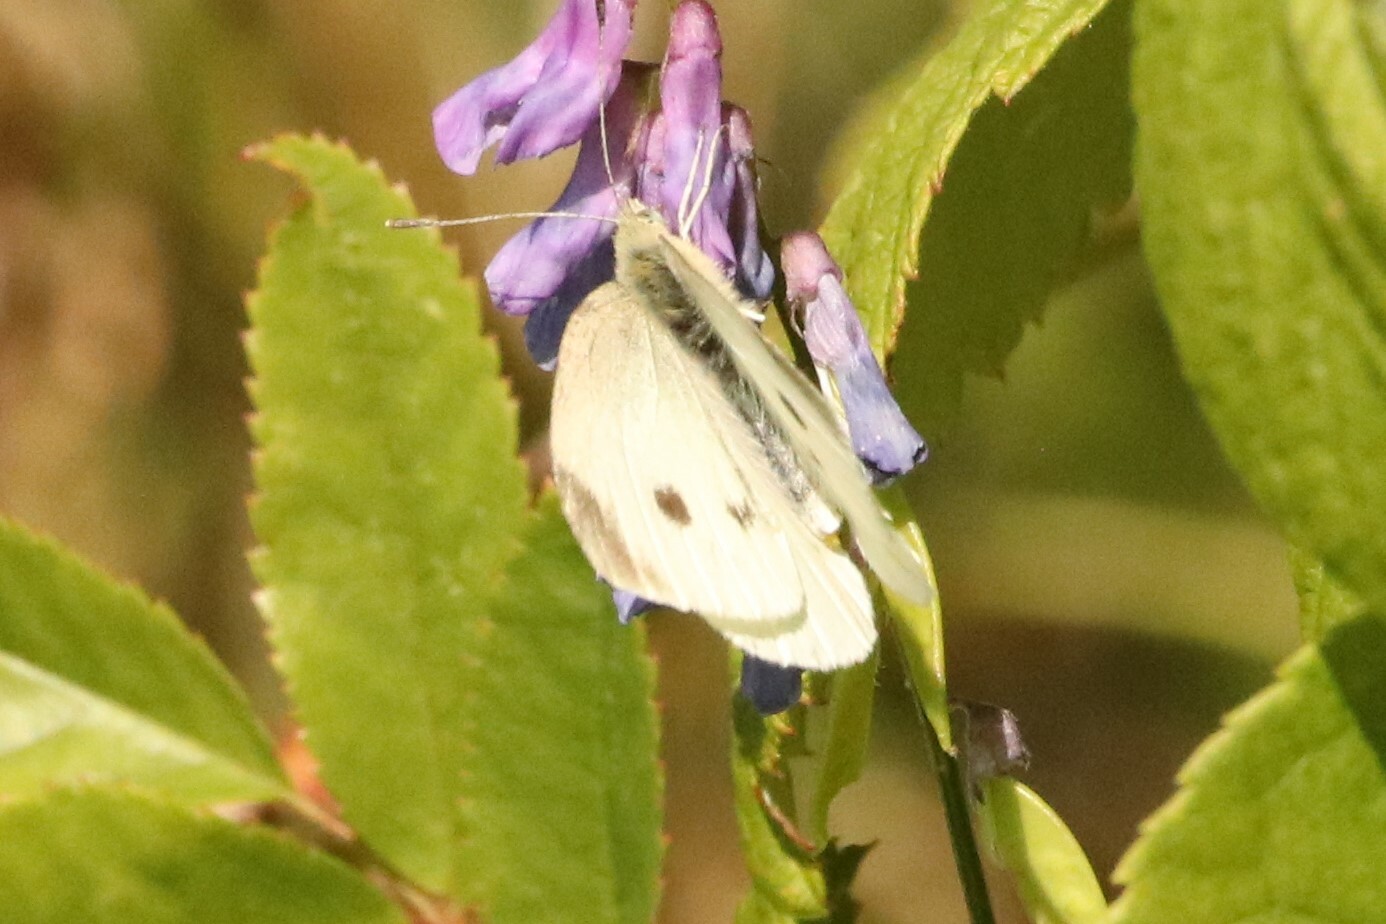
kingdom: Animalia
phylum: Arthropoda
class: Insecta
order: Lepidoptera
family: Pieridae
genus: Pieris
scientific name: Pieris rapae
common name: Small white
